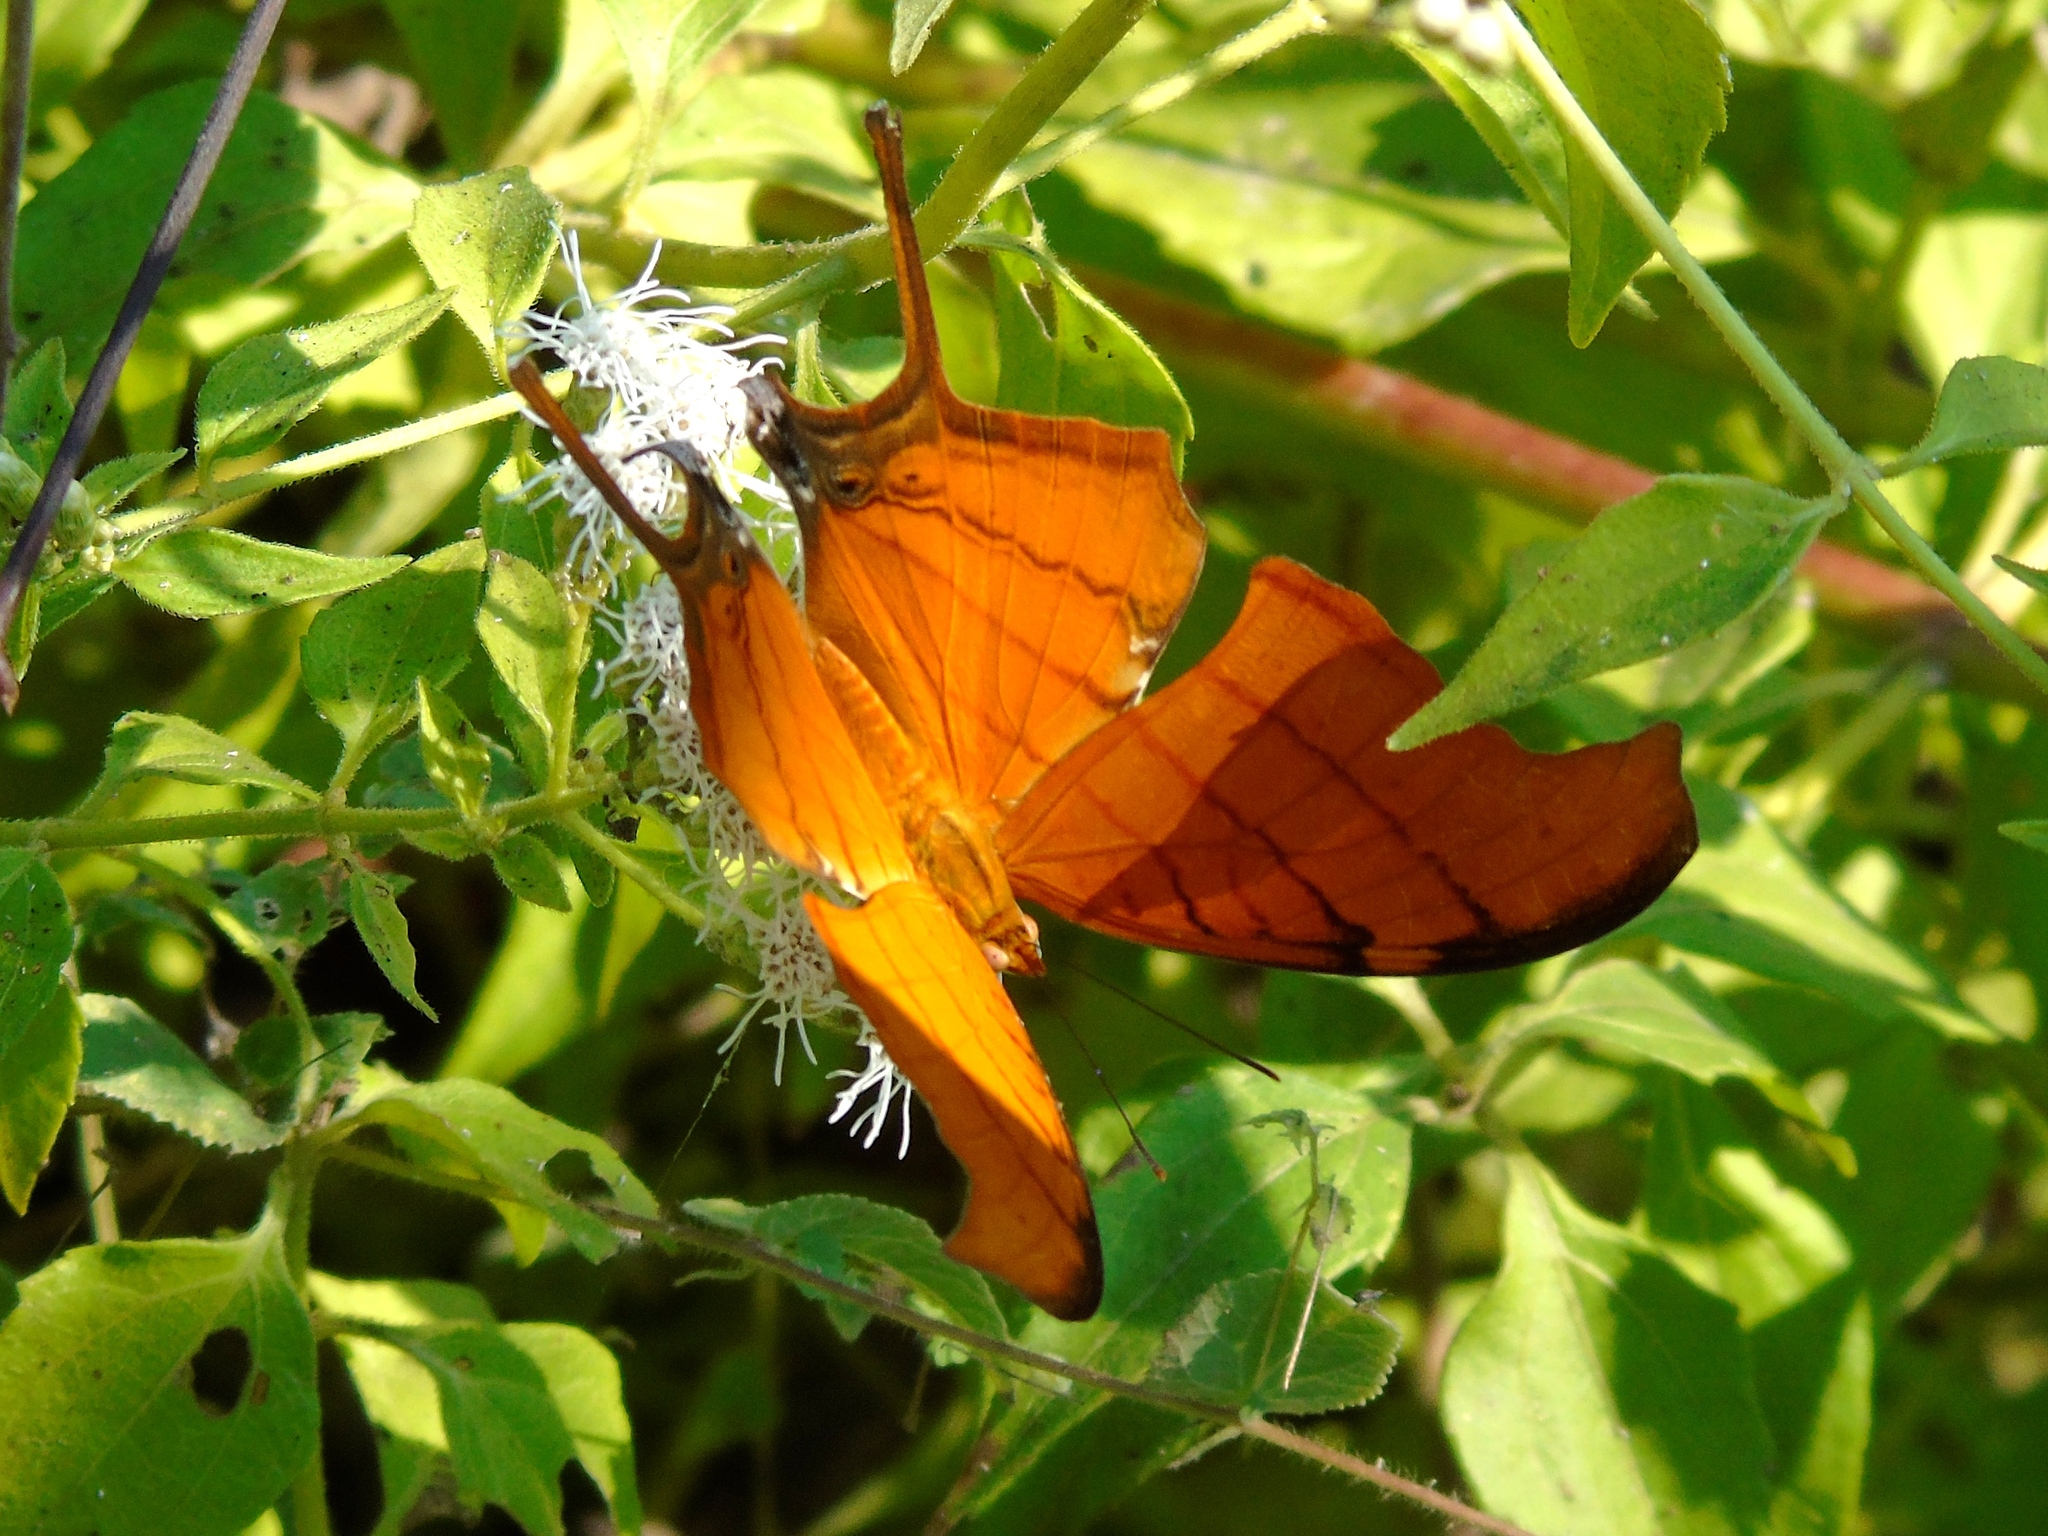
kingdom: Animalia
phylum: Arthropoda
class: Insecta
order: Lepidoptera
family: Nymphalidae
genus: Marpesia
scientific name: Marpesia petreus
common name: Red dagger wing
